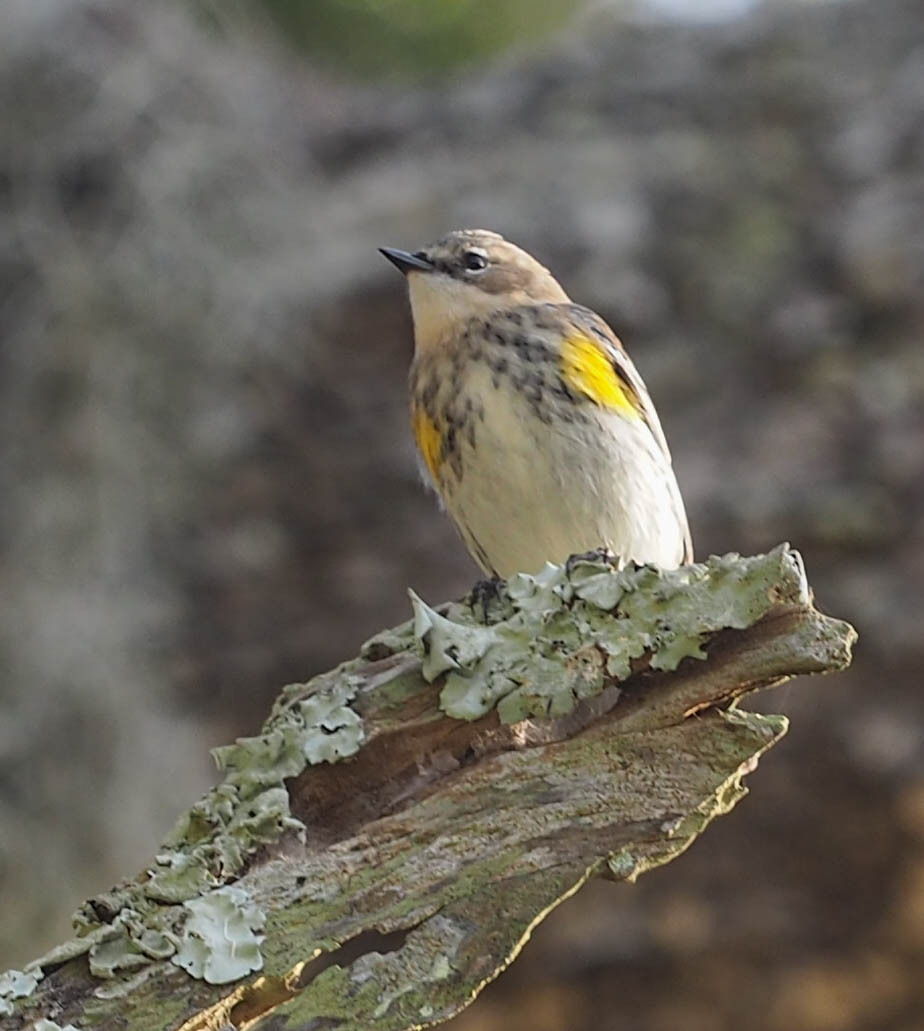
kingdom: Animalia
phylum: Chordata
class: Aves
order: Passeriformes
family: Parulidae
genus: Setophaga
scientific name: Setophaga coronata
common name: Myrtle warbler
